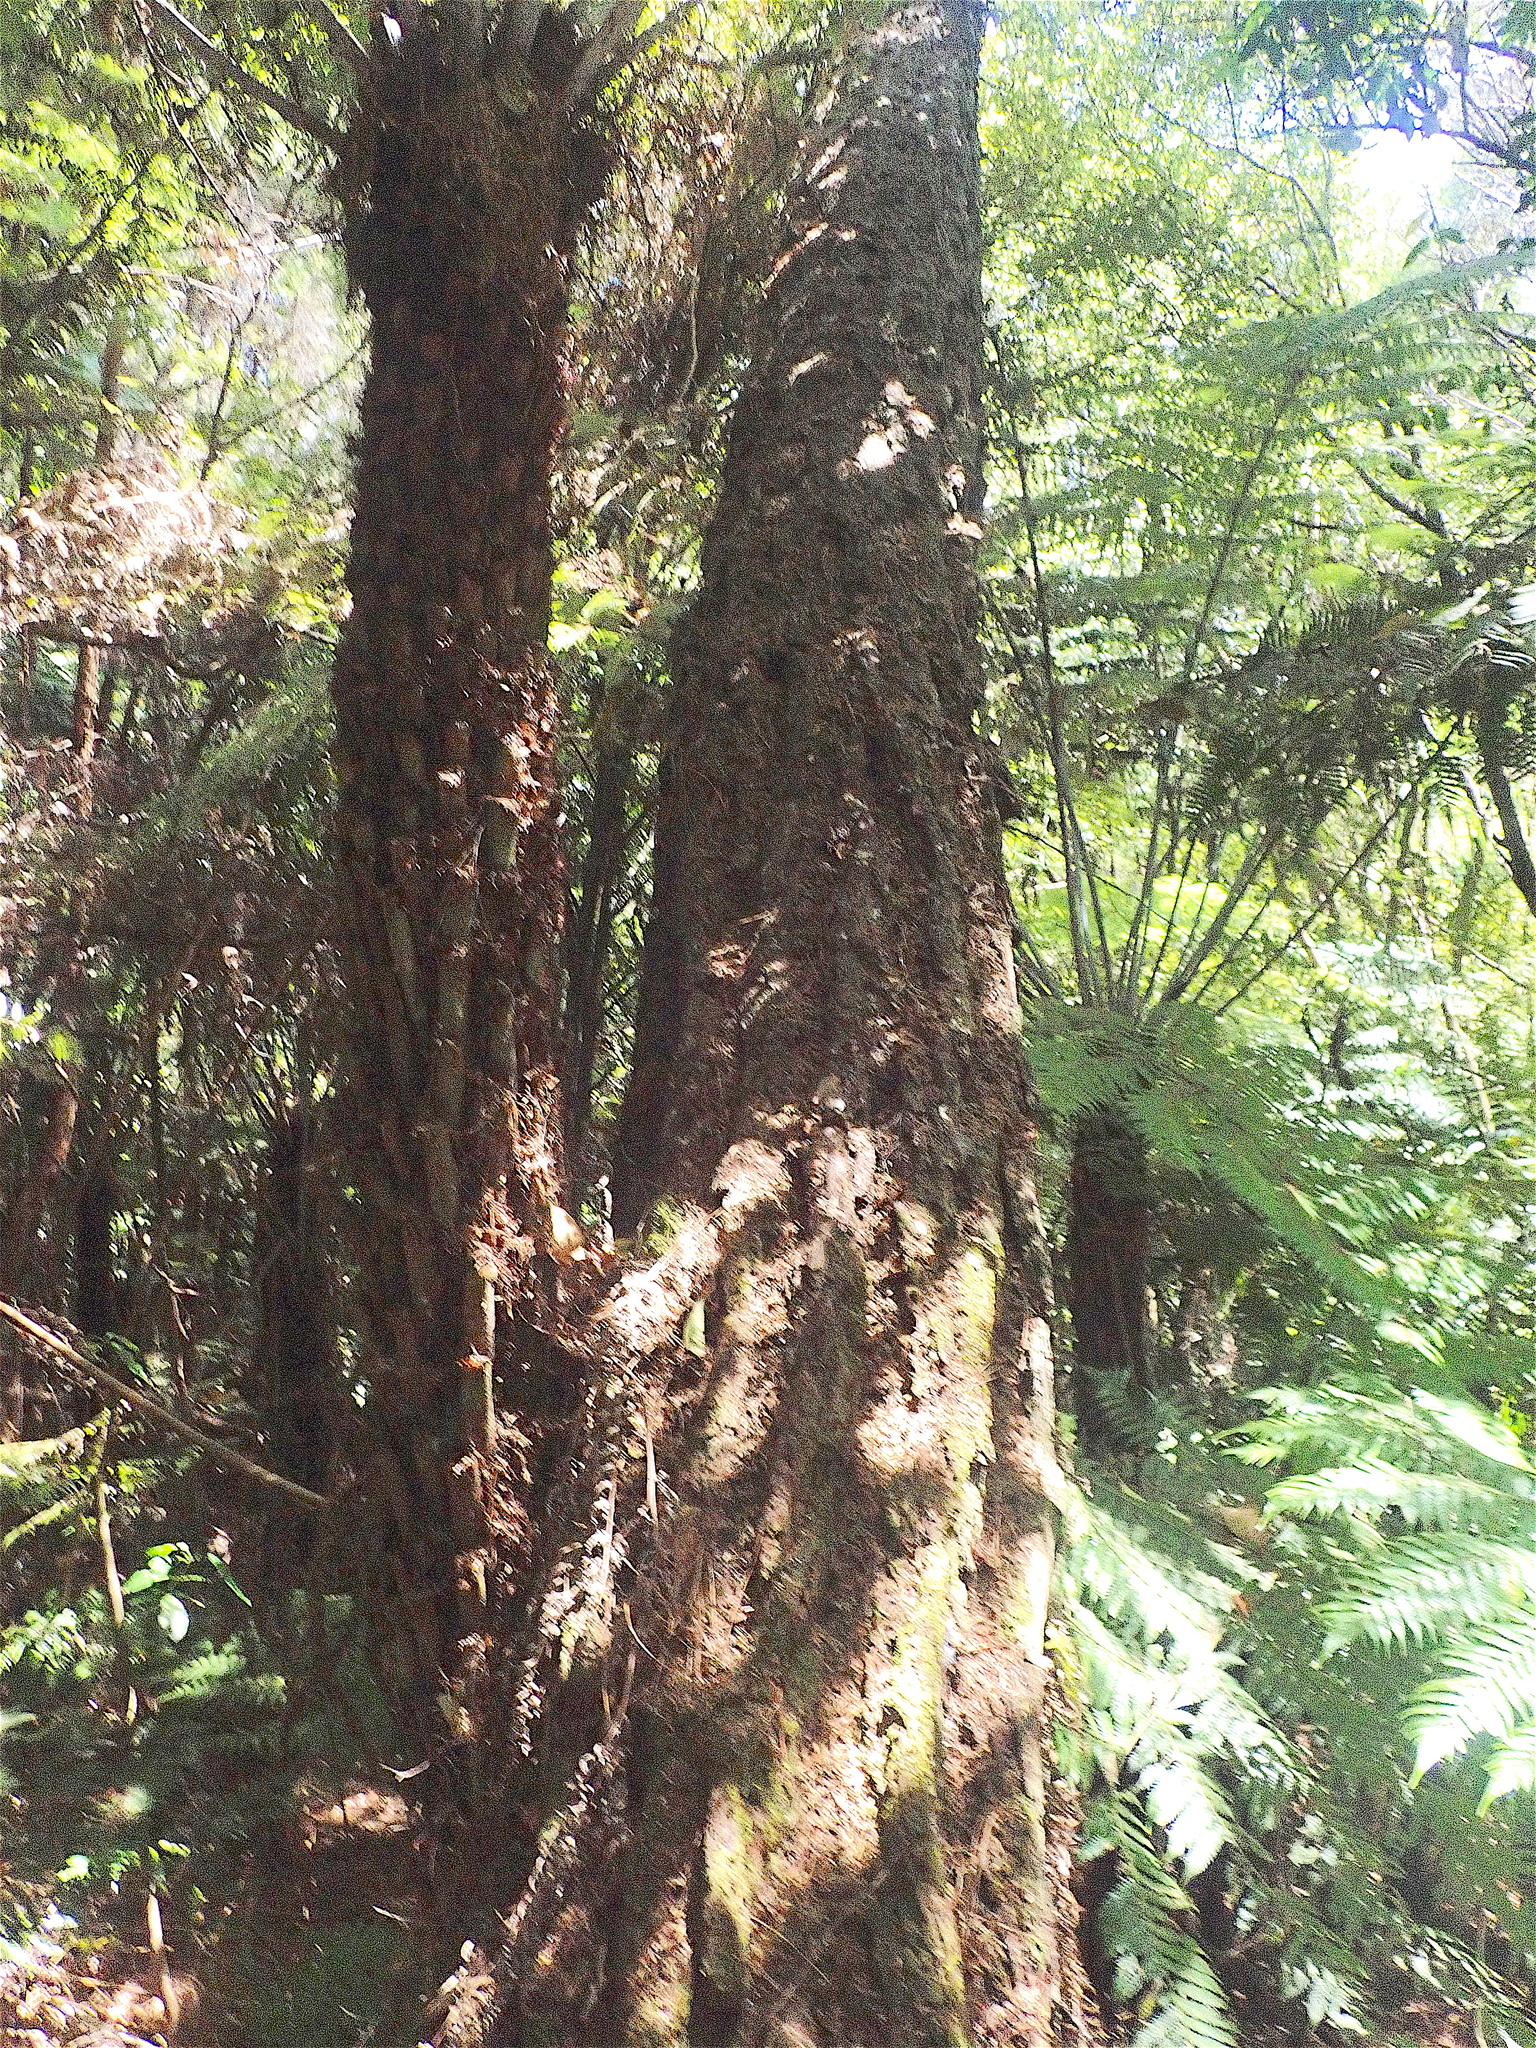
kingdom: Plantae
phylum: Tracheophyta
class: Polypodiopsida
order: Cyatheales
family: Cyatheaceae
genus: Alsophila
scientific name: Alsophila dealbata
